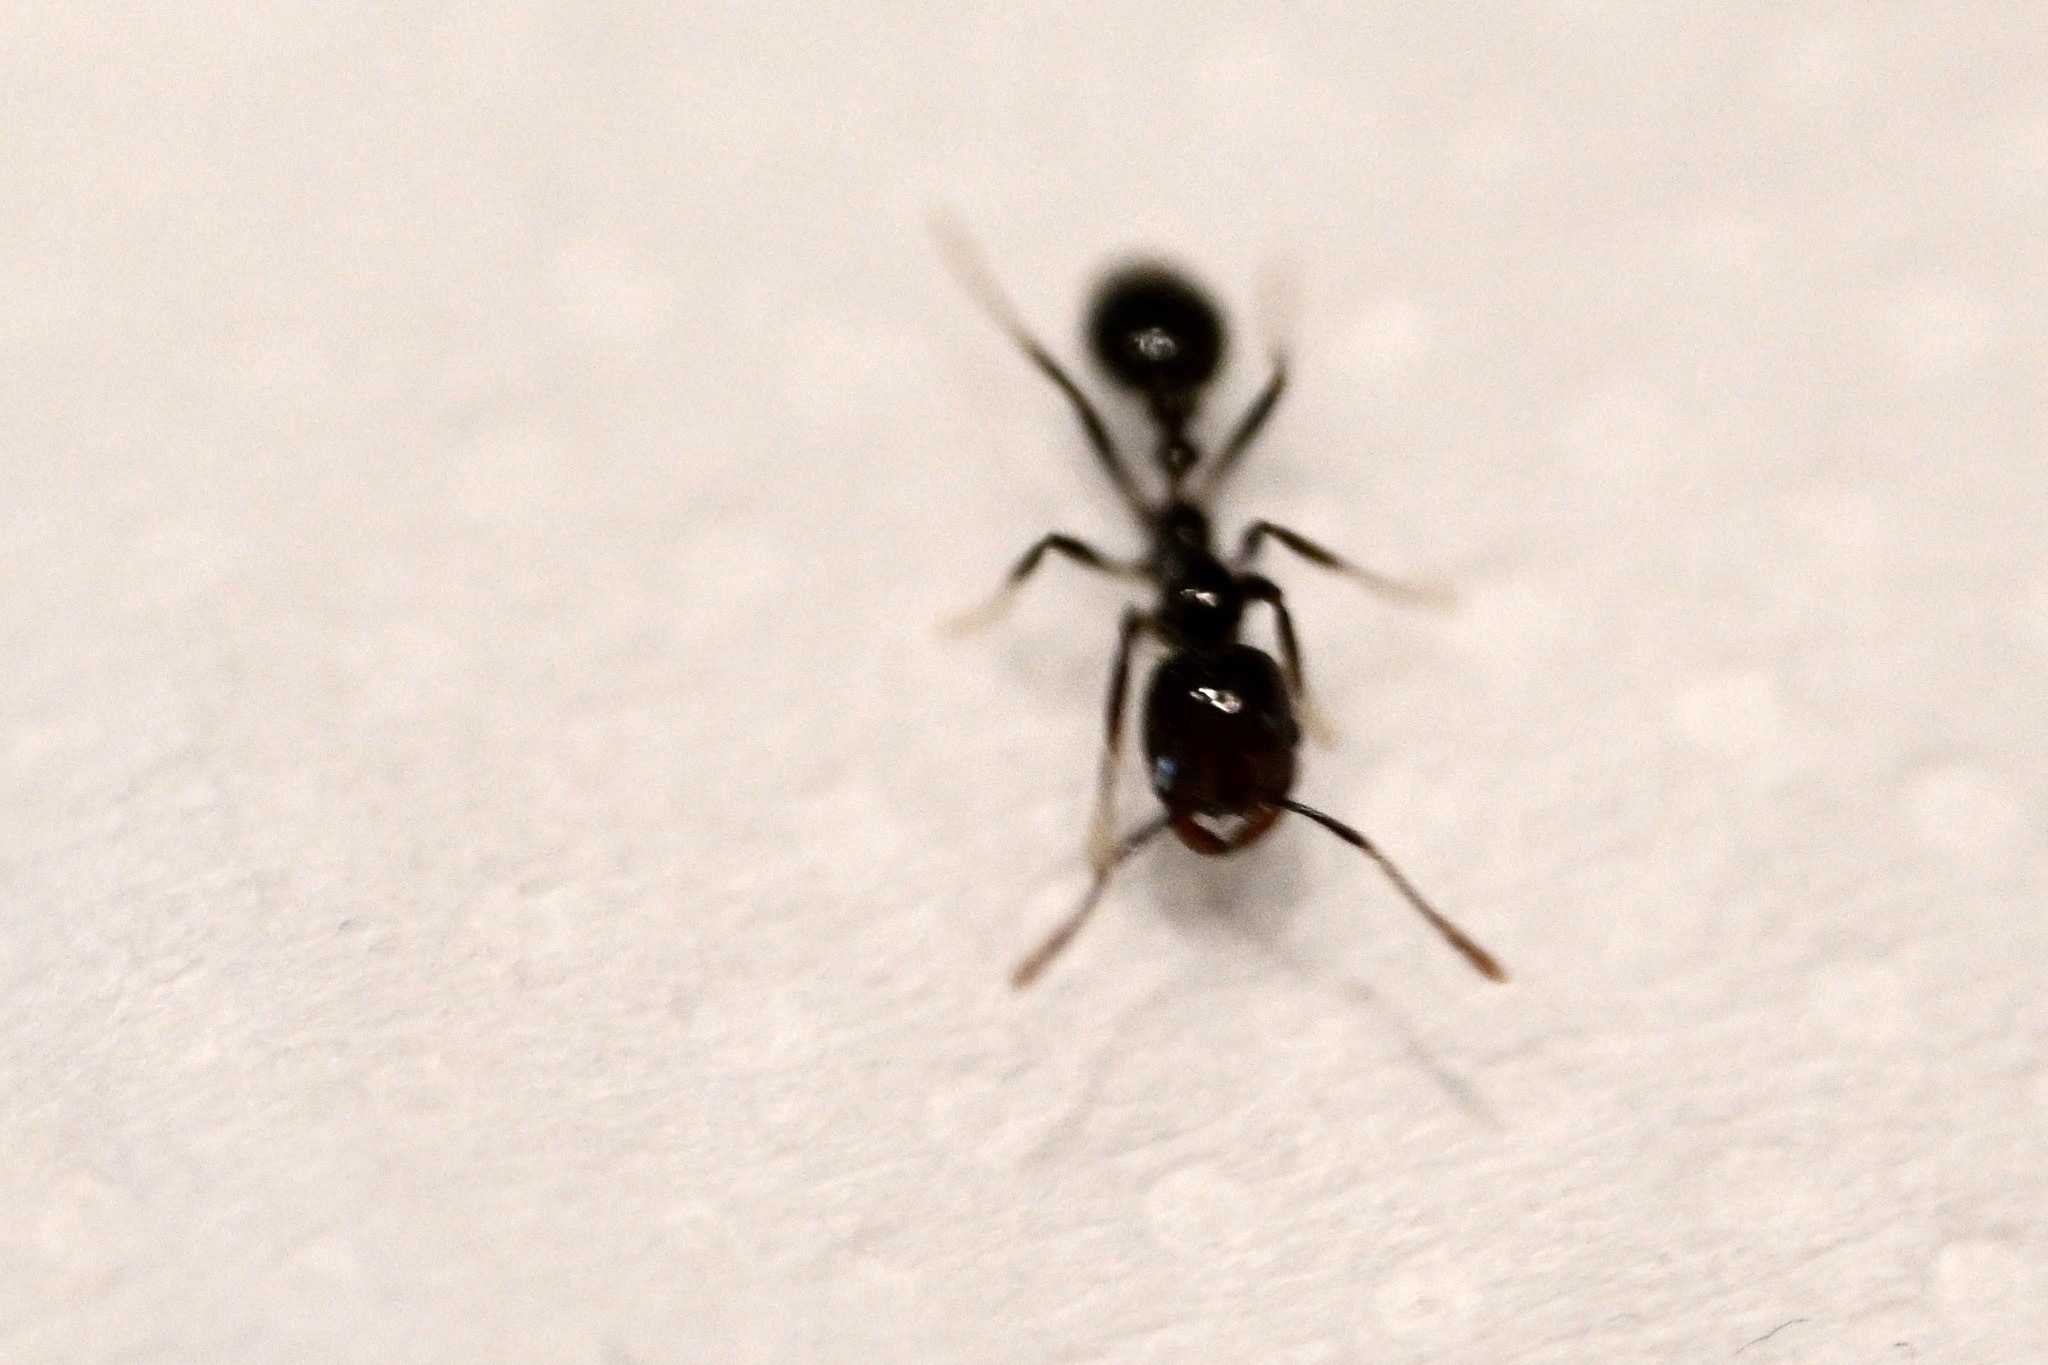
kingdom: Animalia
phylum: Arthropoda
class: Insecta
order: Hymenoptera
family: Formicidae
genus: Solenopsis
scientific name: Solenopsis xyloni
